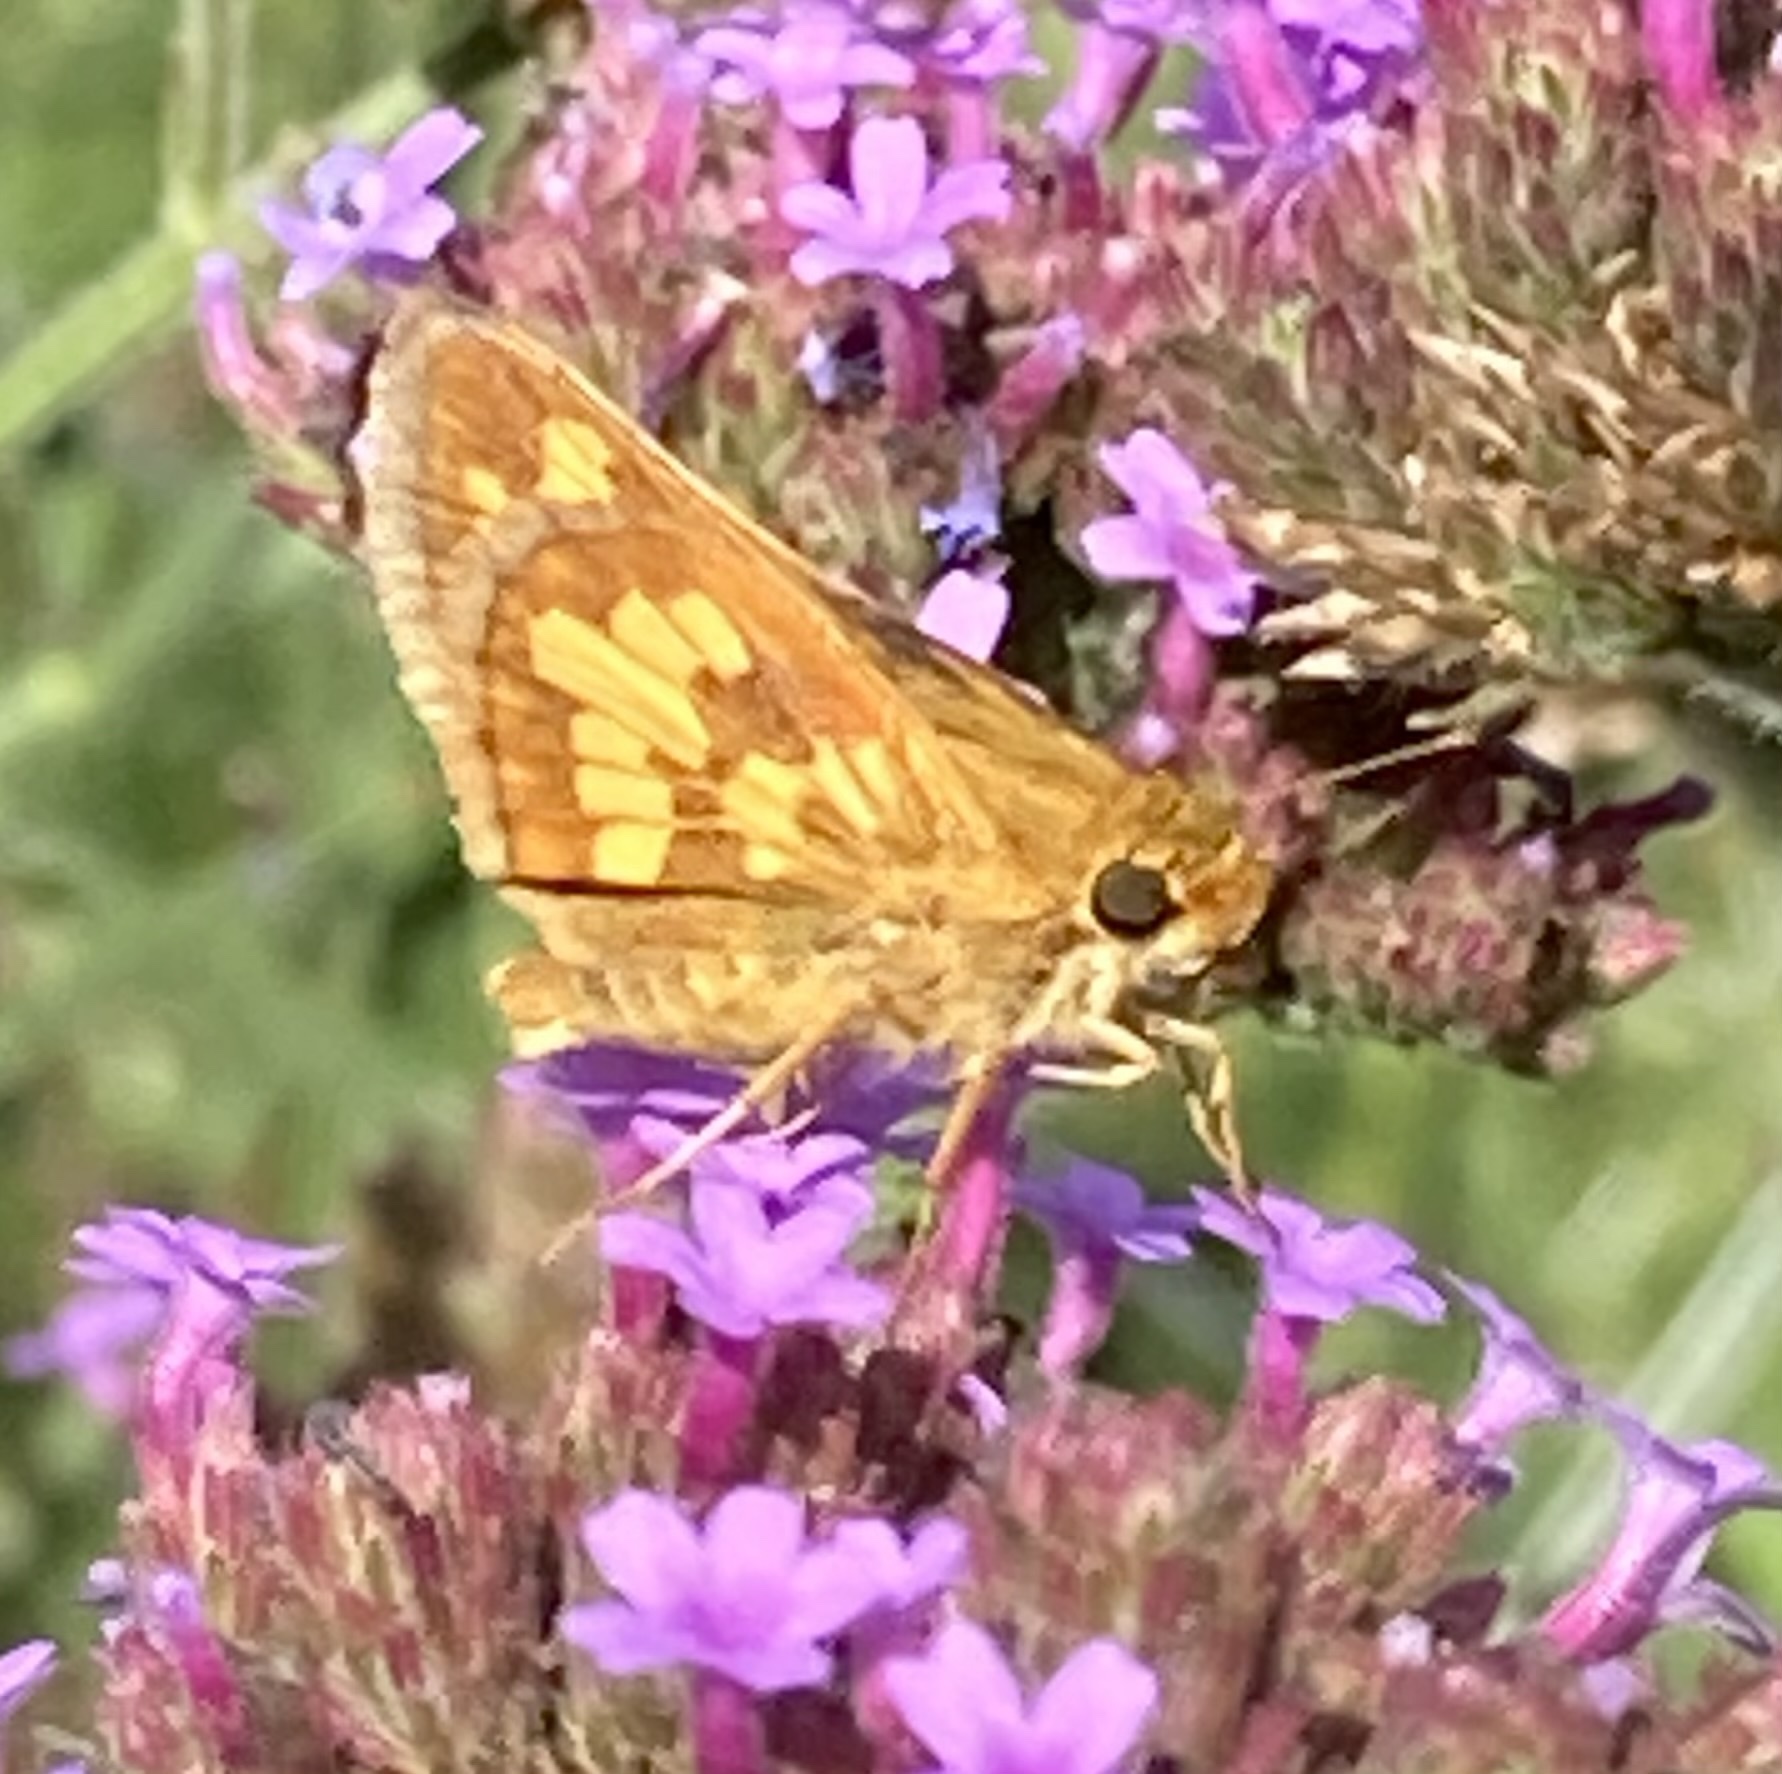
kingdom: Animalia
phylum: Arthropoda
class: Insecta
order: Lepidoptera
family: Hesperiidae
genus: Polites
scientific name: Polites coras
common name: Peck's skipper
